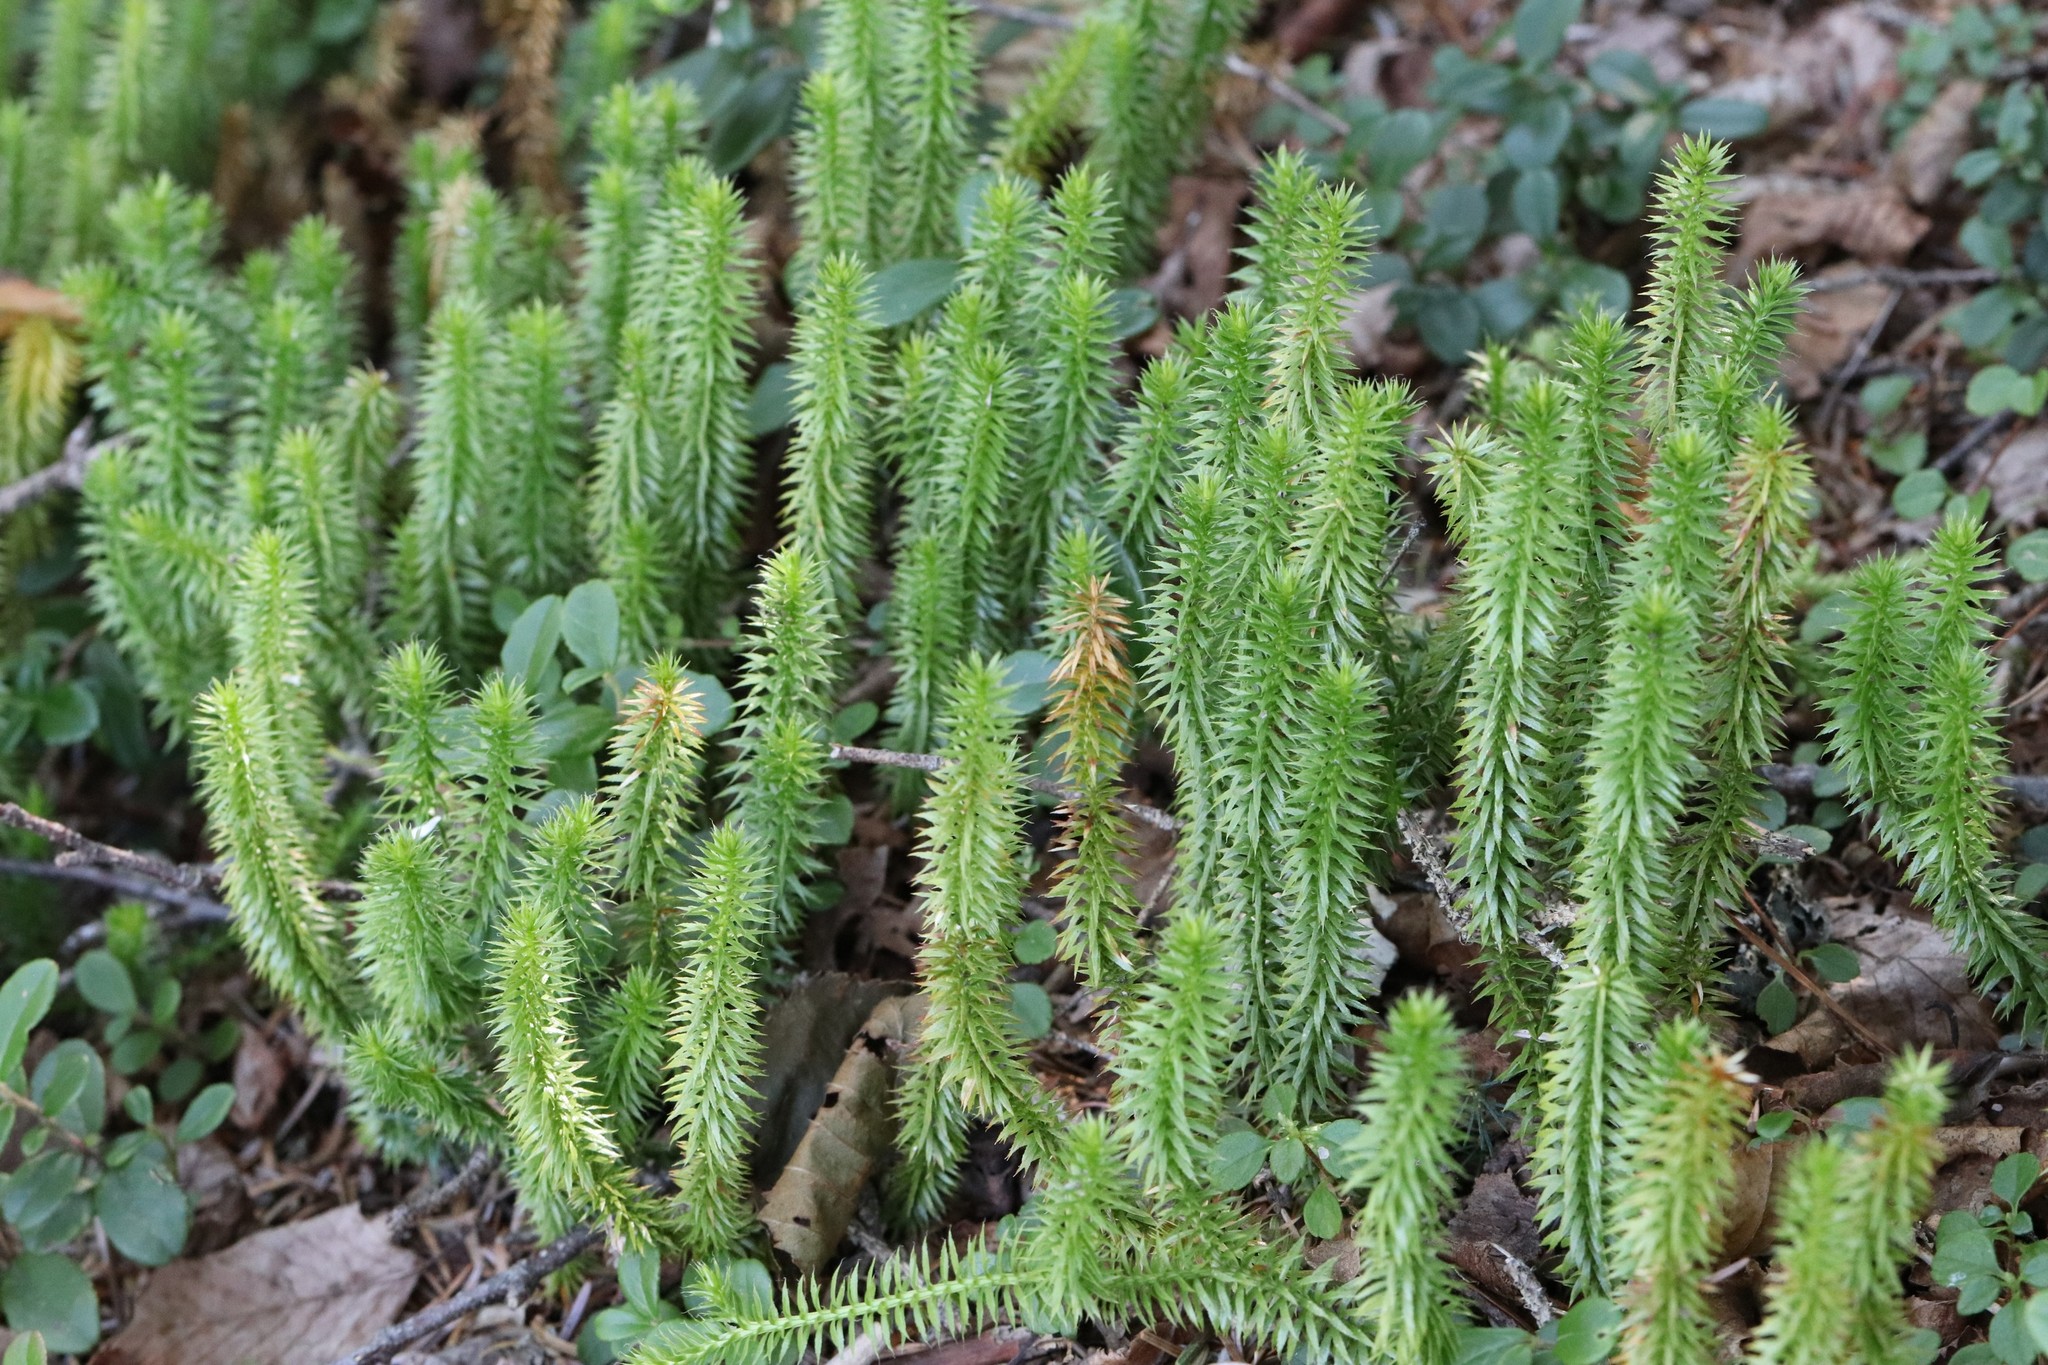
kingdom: Plantae
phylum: Tracheophyta
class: Lycopodiopsida
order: Lycopodiales
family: Lycopodiaceae
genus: Spinulum
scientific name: Spinulum annotinum
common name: Interrupted club-moss
